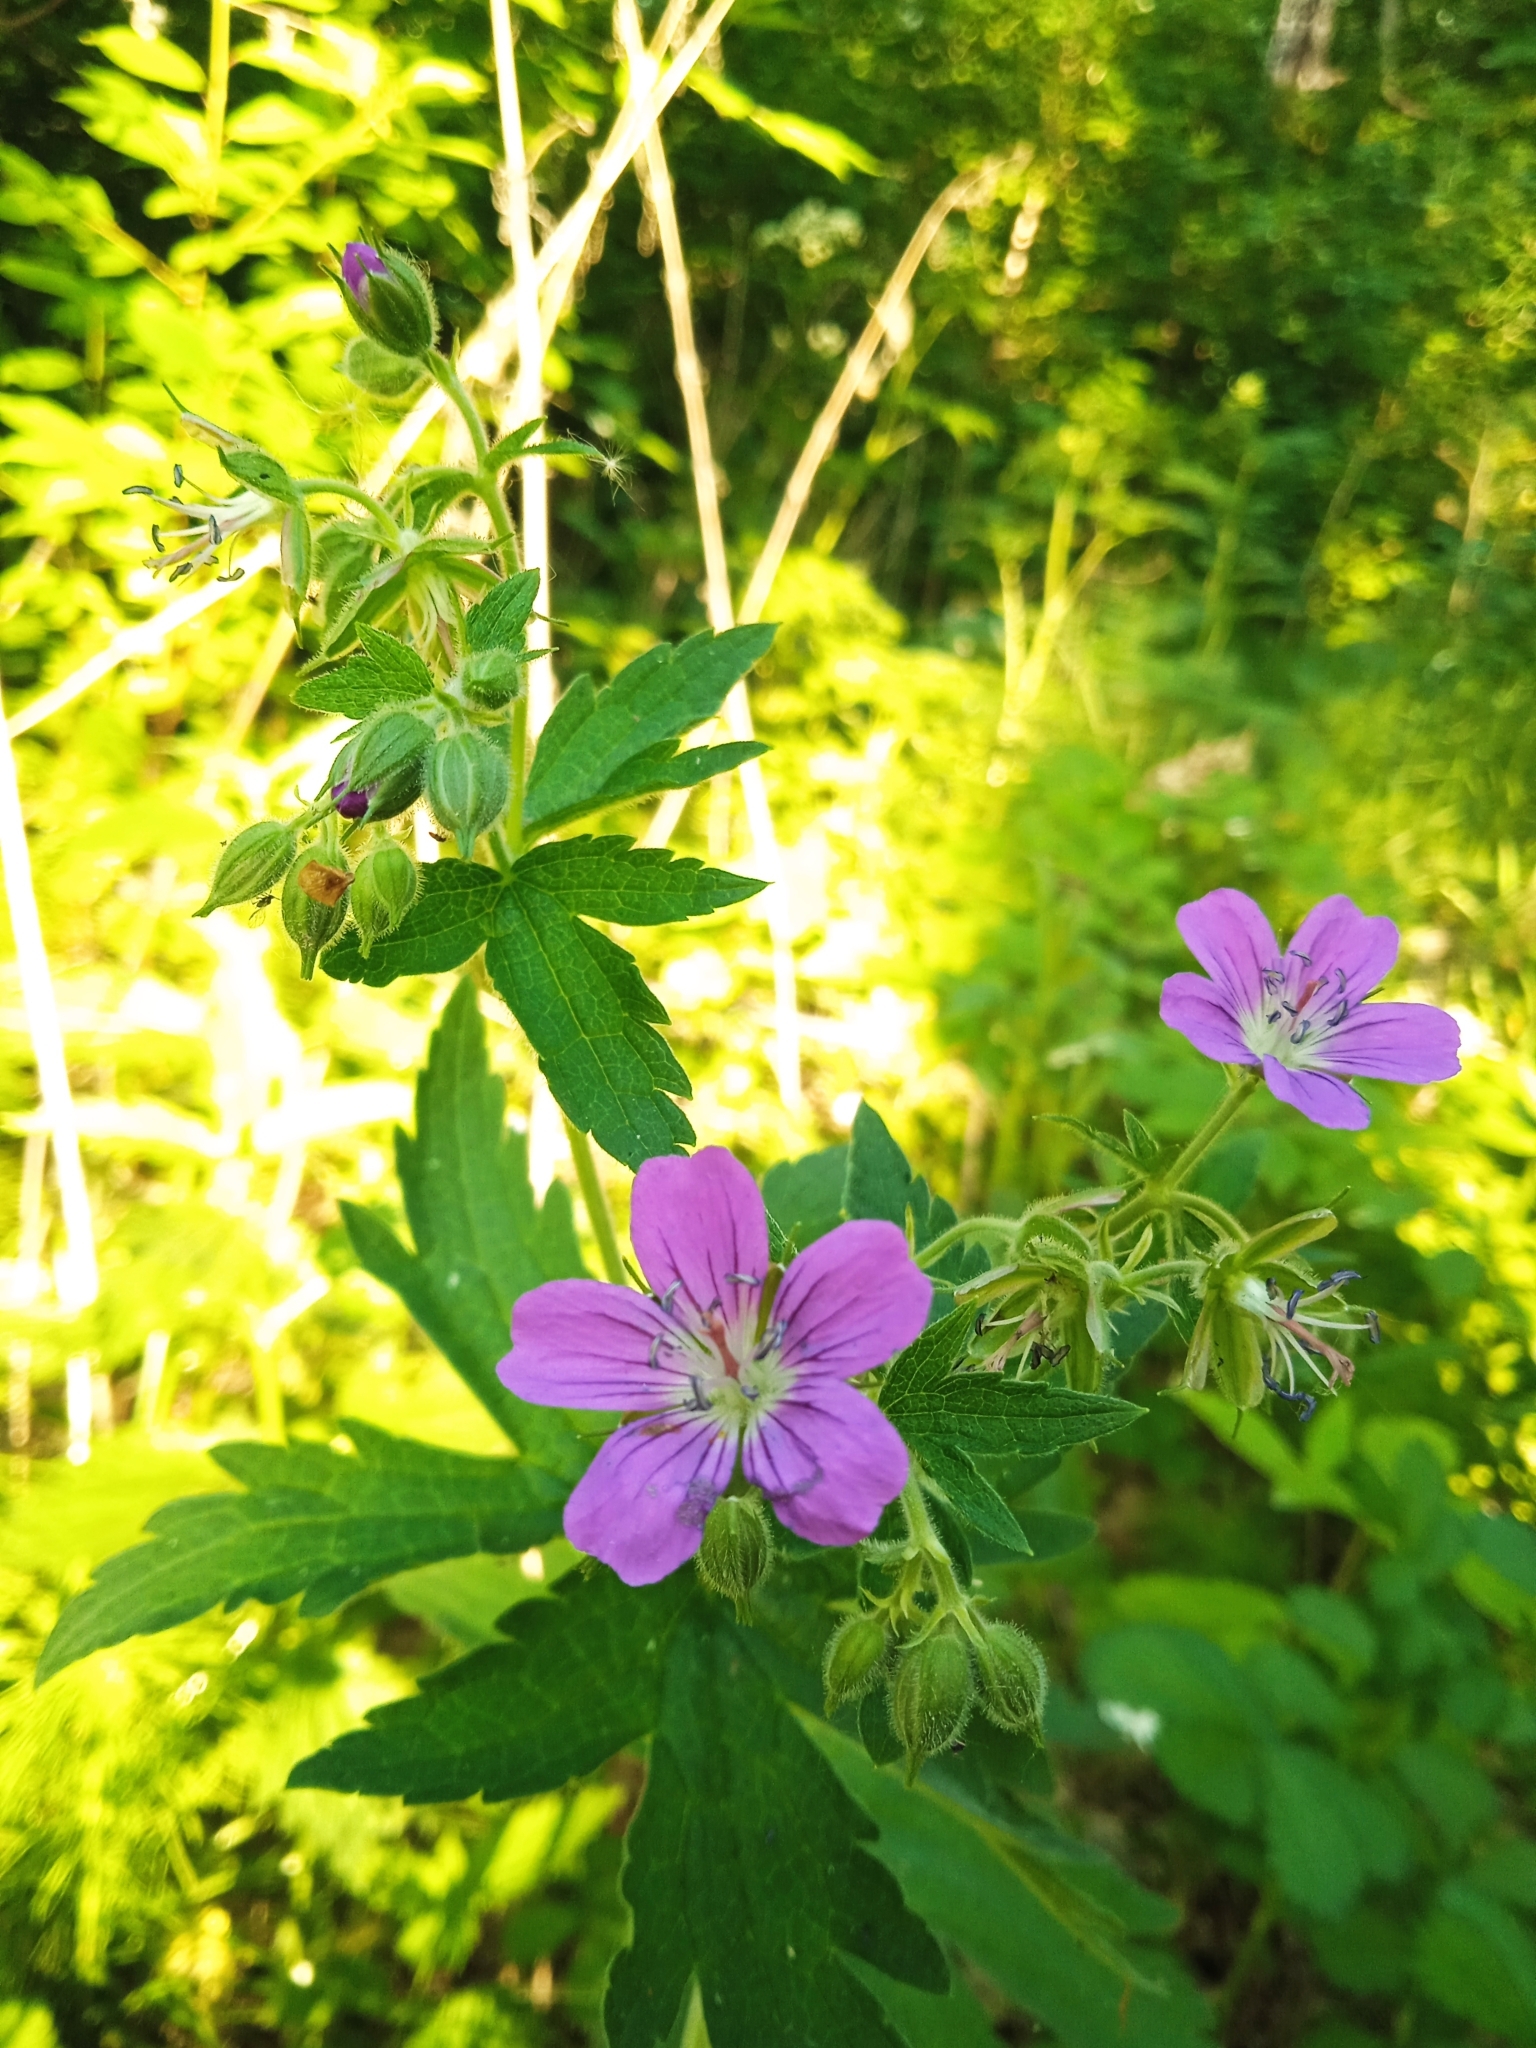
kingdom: Plantae
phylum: Tracheophyta
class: Magnoliopsida
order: Geraniales
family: Geraniaceae
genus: Geranium
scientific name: Geranium sylvaticum
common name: Wood crane's-bill
